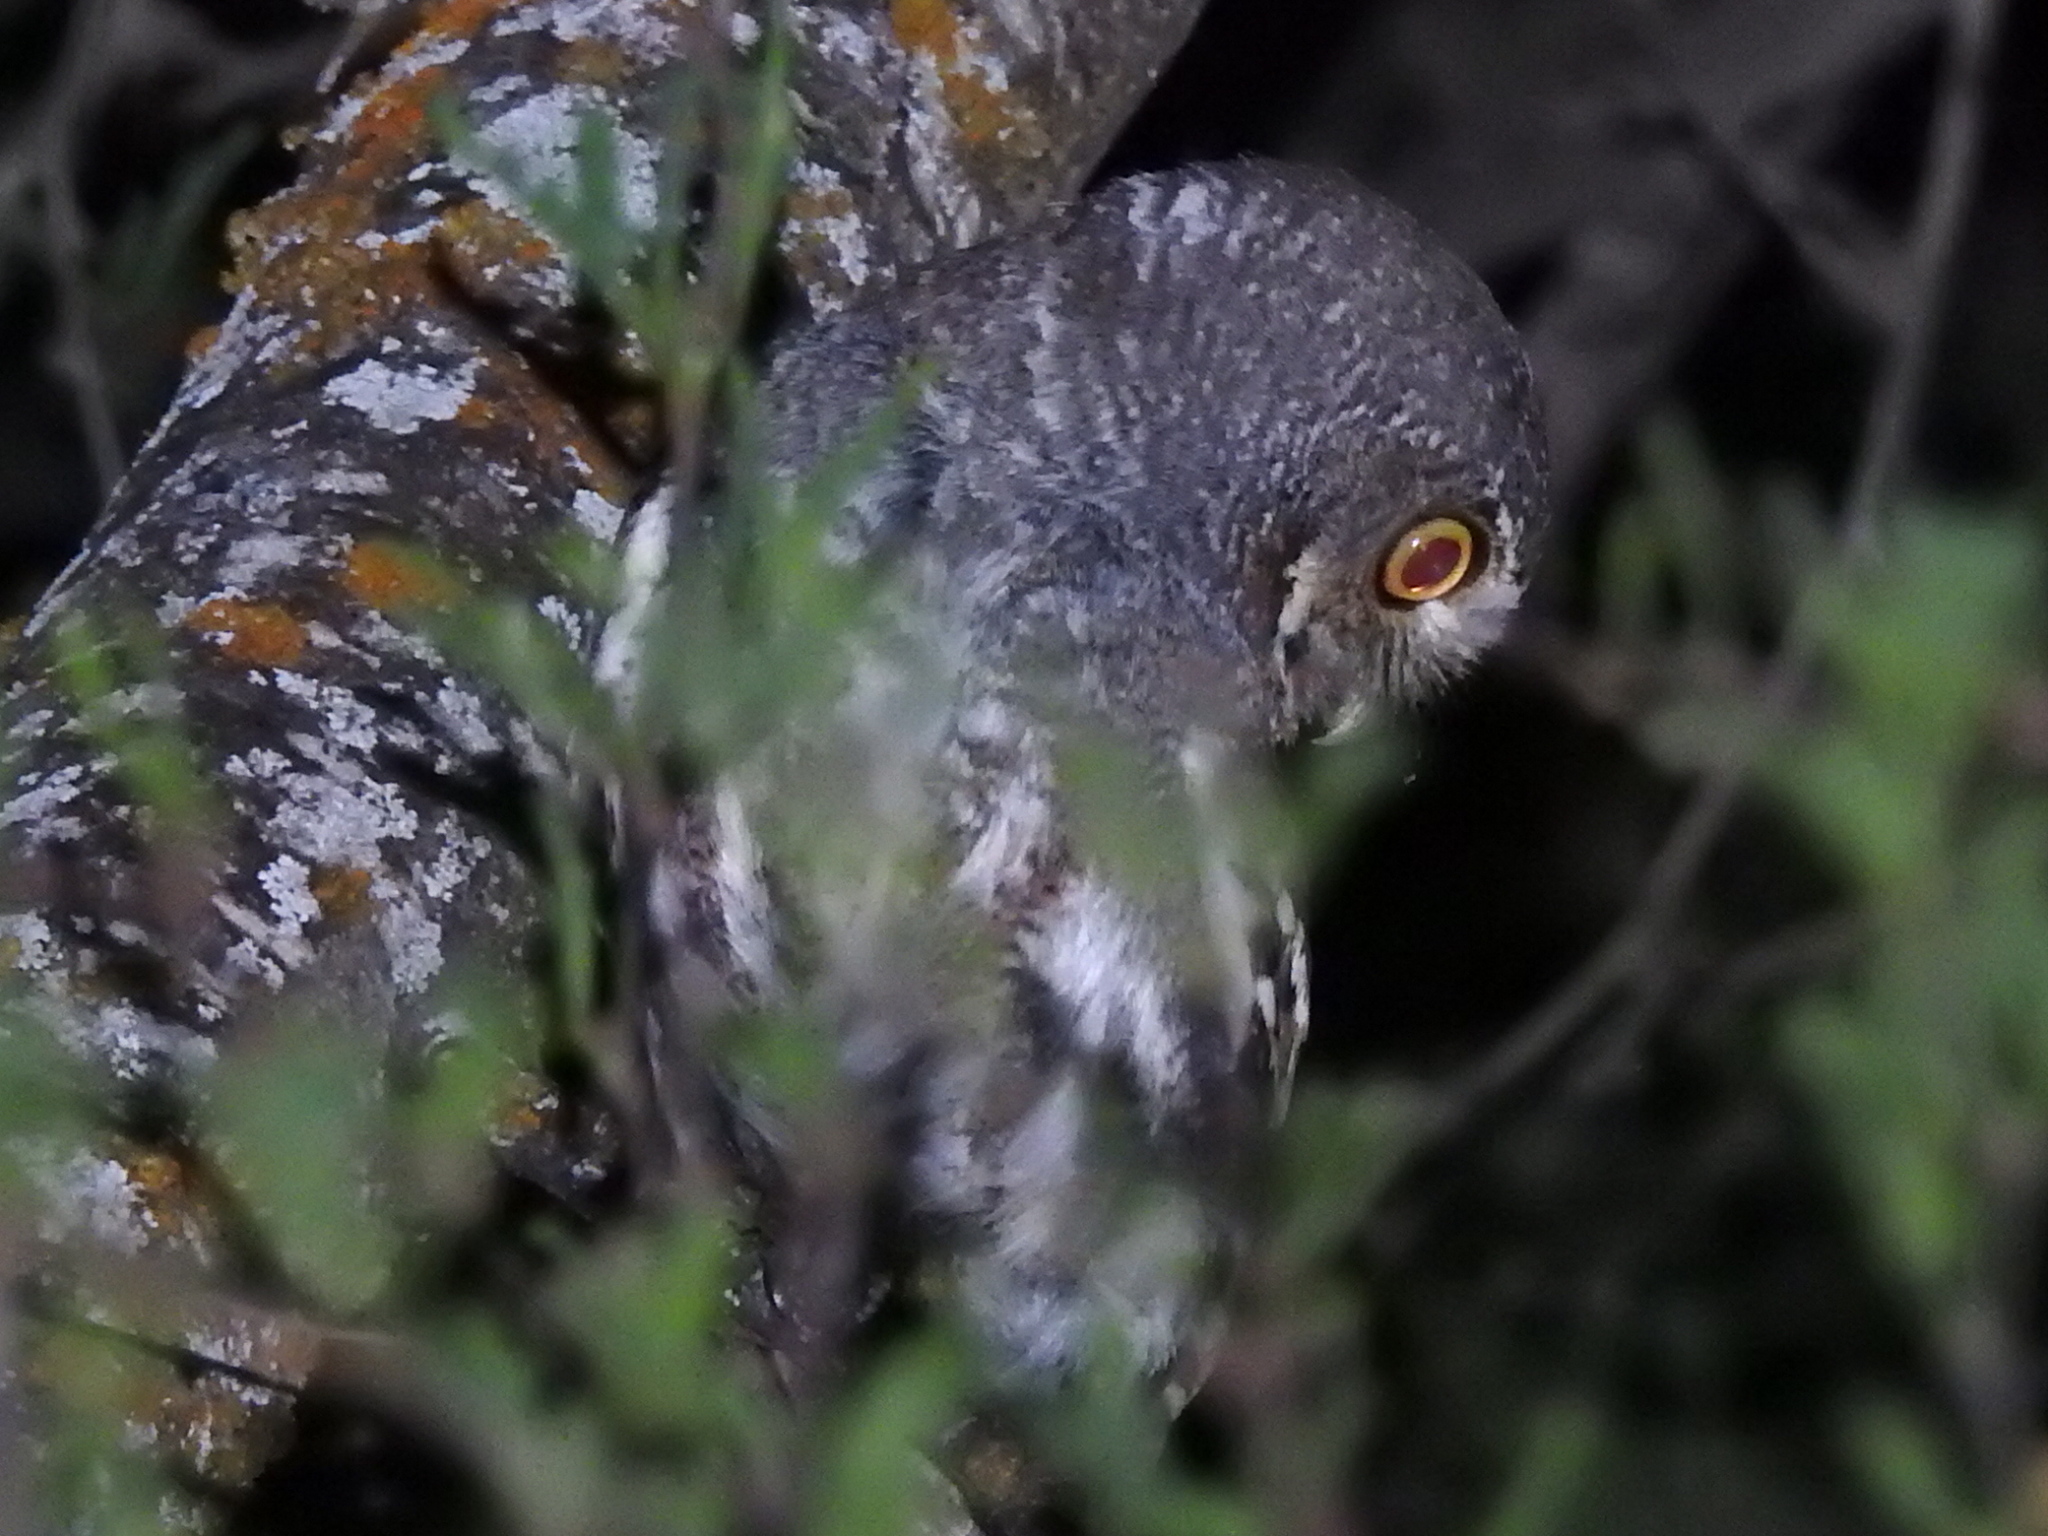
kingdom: Animalia
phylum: Chordata
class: Aves
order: Strigiformes
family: Strigidae
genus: Micrathene
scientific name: Micrathene whitneyi
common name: Elf owl
